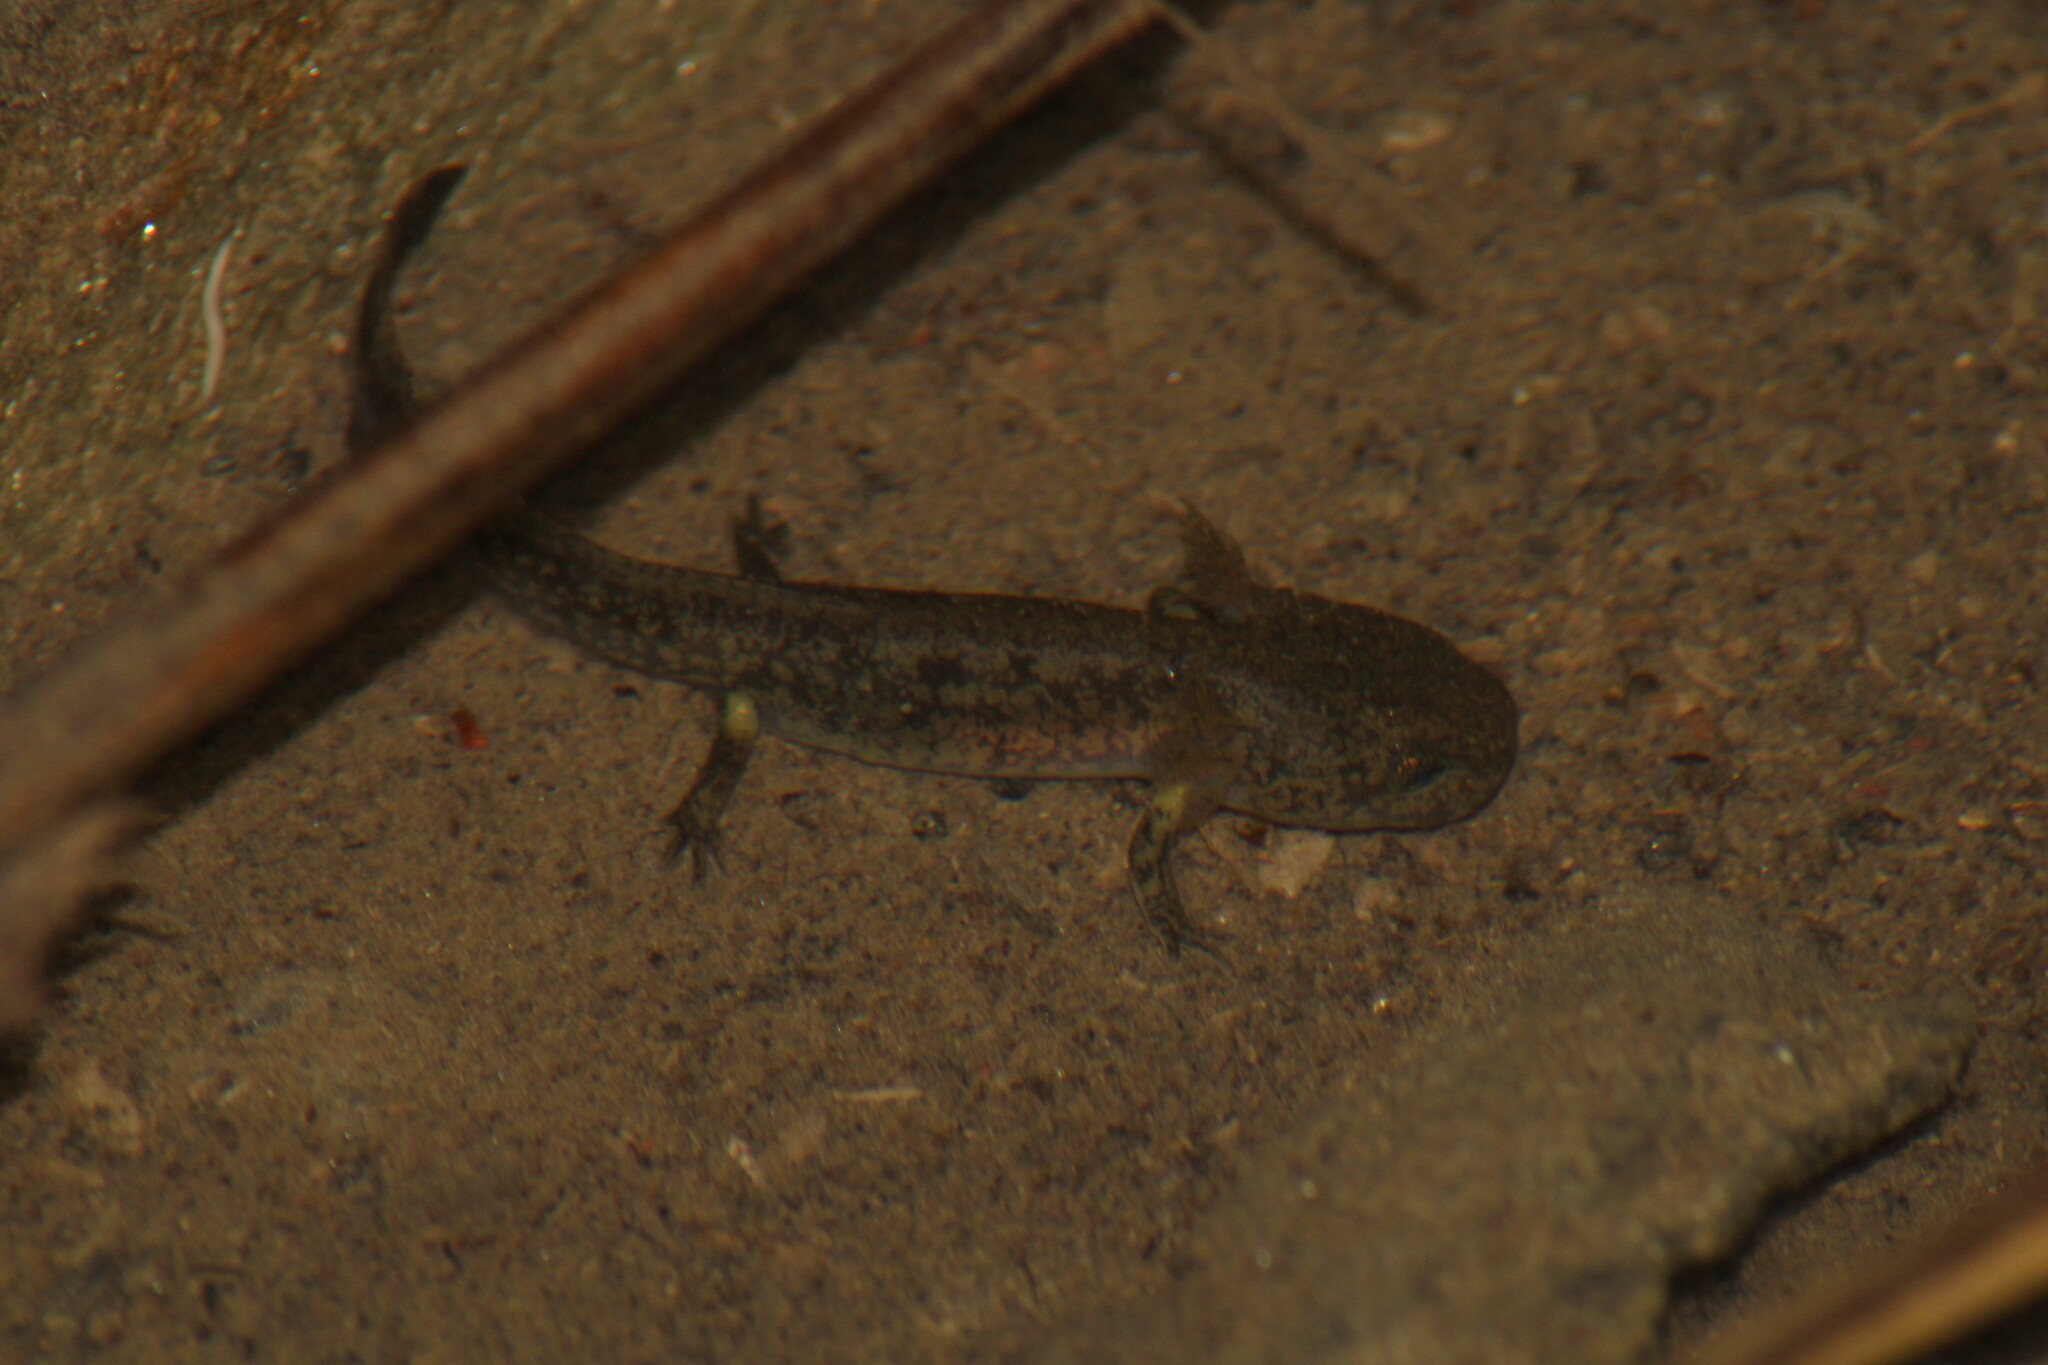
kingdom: Animalia
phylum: Chordata
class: Amphibia
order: Caudata
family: Salamandridae
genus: Salamandra
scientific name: Salamandra salamandra
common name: Fire salamander
